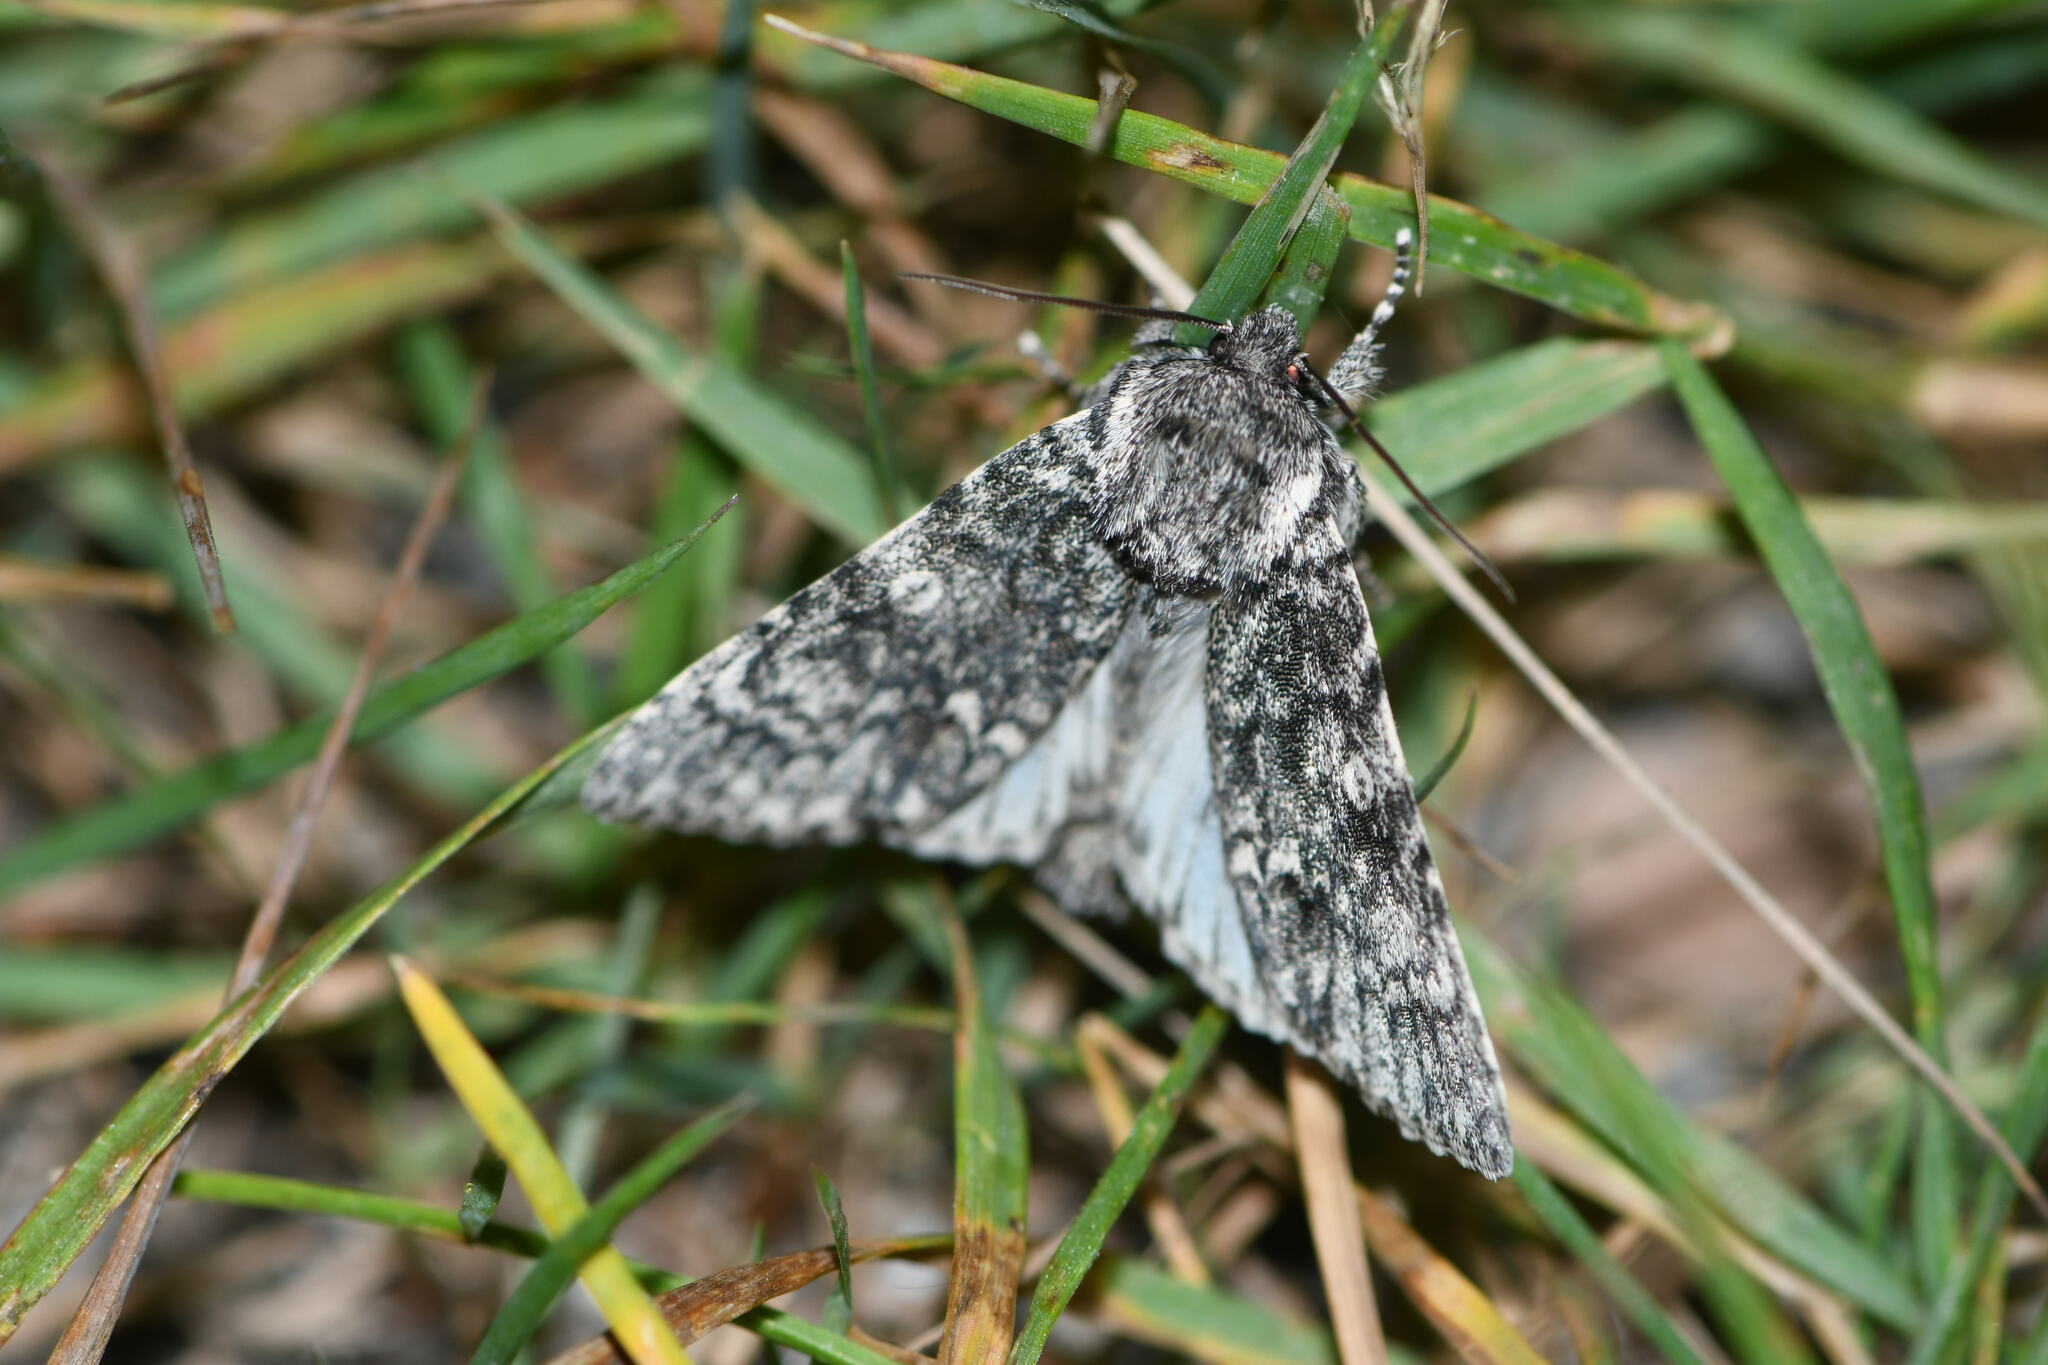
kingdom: Animalia
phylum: Arthropoda
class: Insecta
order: Lepidoptera
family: Noctuidae
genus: Acronicta
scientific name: Acronicta megacephala
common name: Poplar grey
